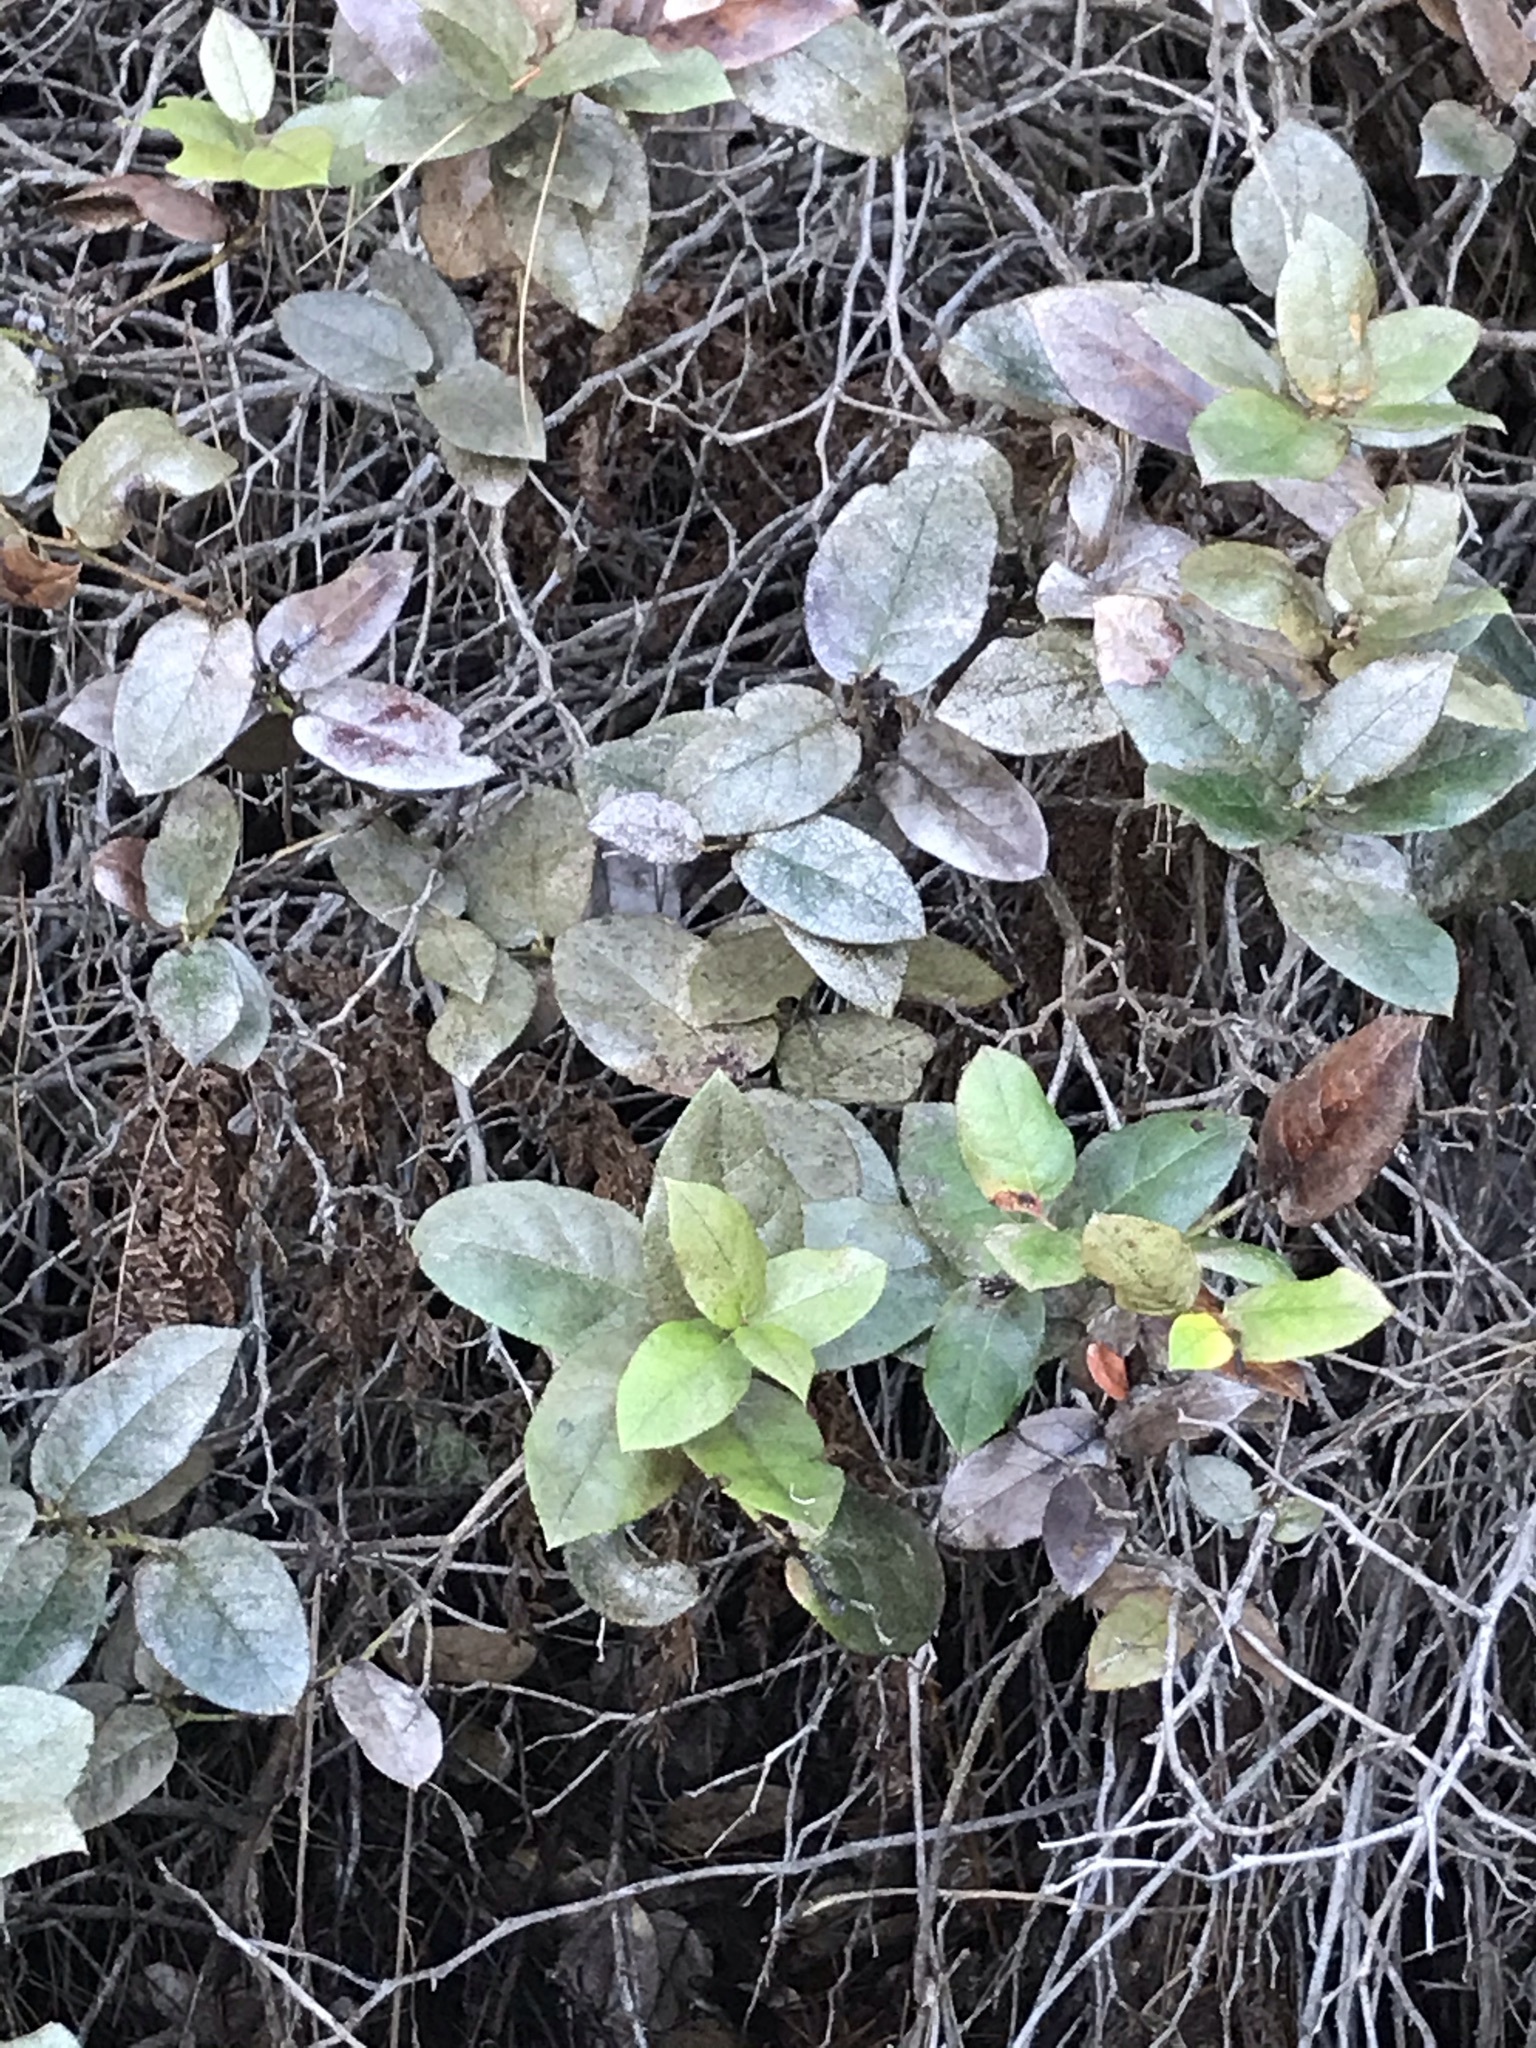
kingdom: Plantae
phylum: Tracheophyta
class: Magnoliopsida
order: Ericales
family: Ericaceae
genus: Gaultheria
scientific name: Gaultheria shallon
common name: Shallon
